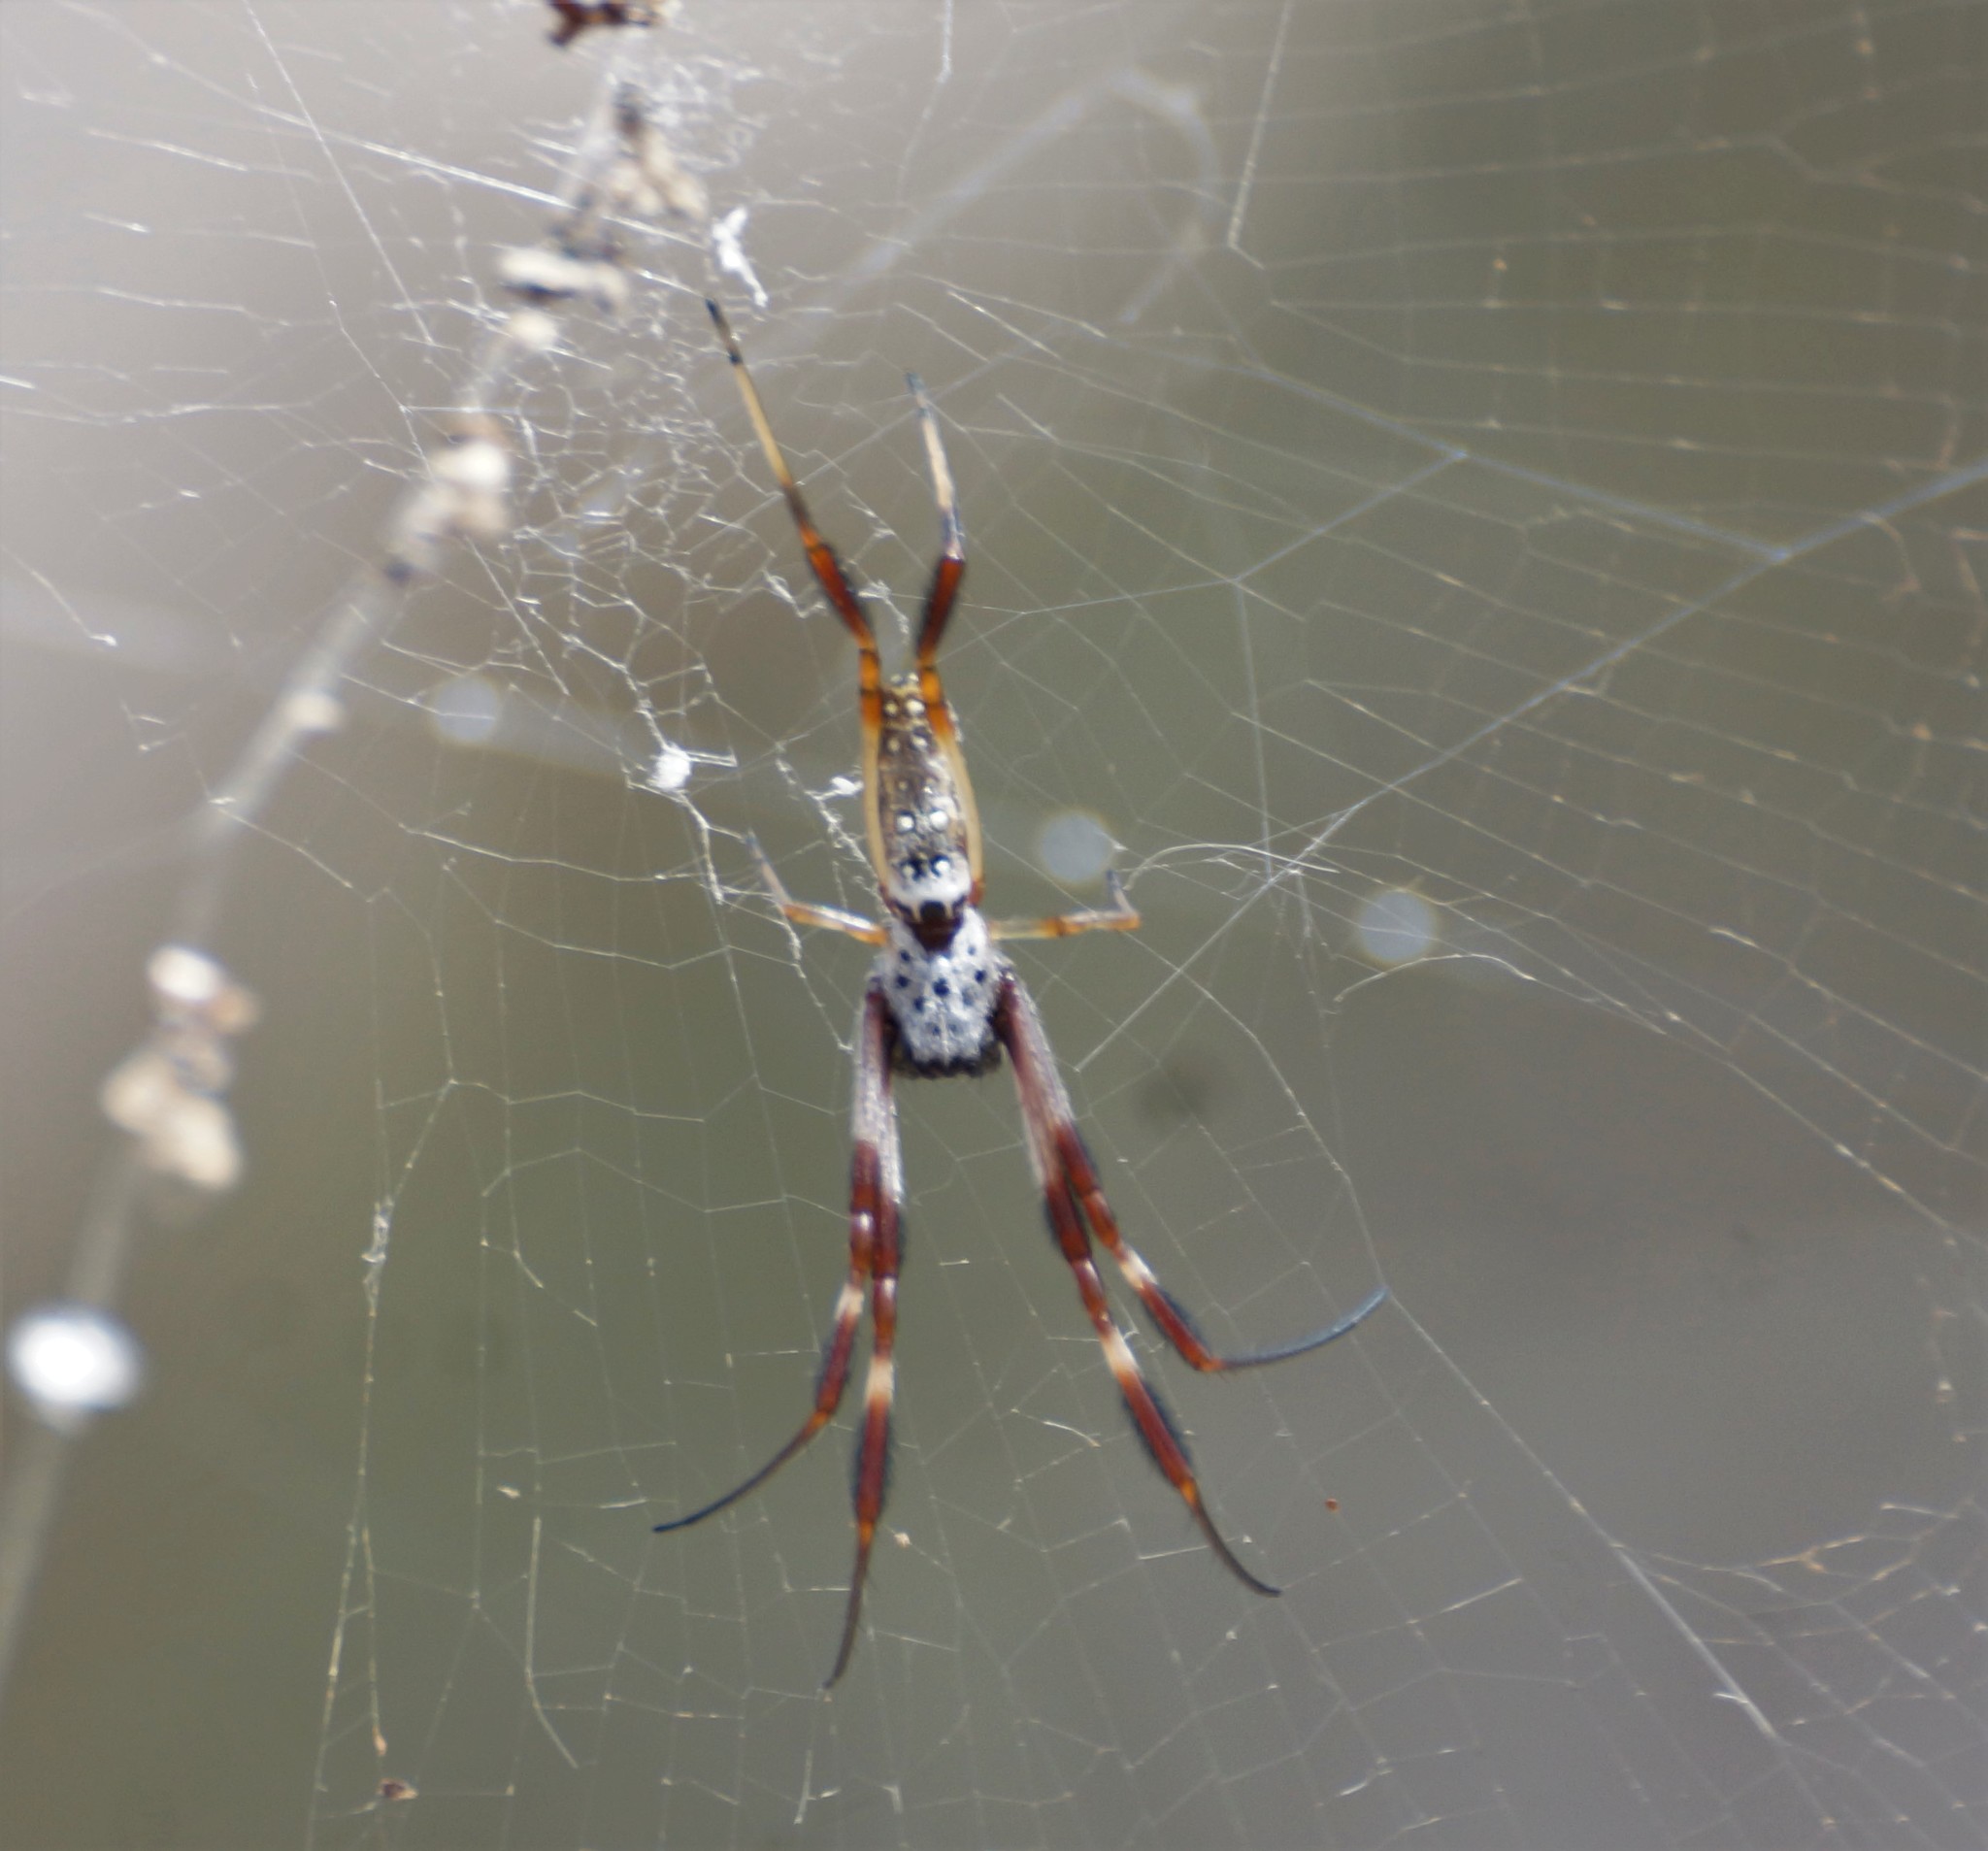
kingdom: Animalia
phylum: Arthropoda
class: Arachnida
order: Araneae
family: Araneidae
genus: Trichonephila
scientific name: Trichonephila edulis
